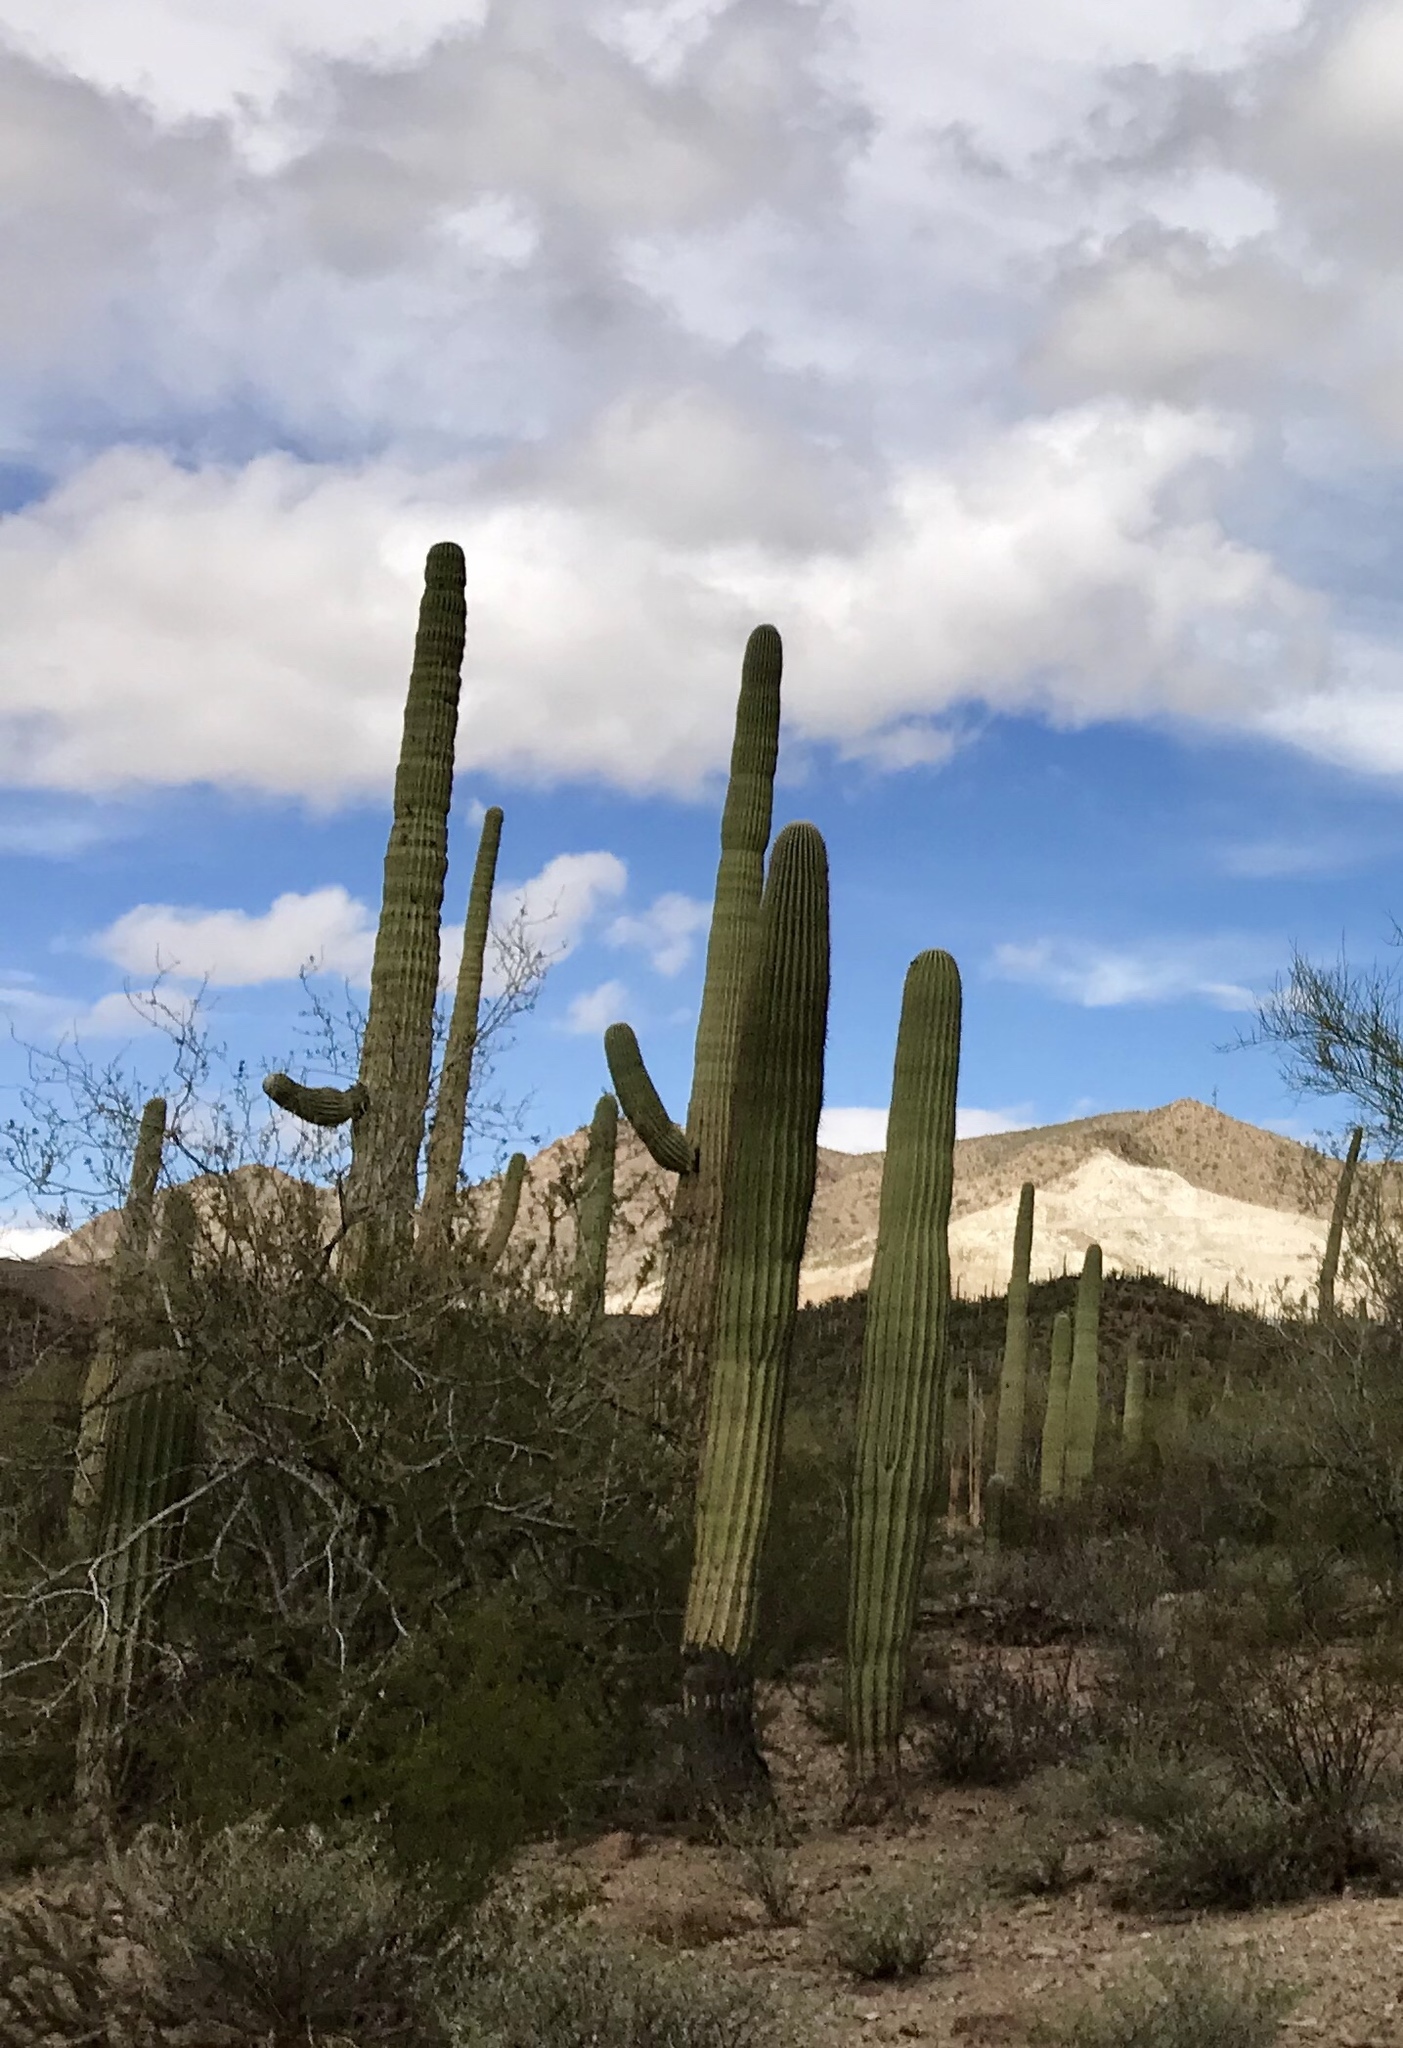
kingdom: Plantae
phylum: Tracheophyta
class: Magnoliopsida
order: Caryophyllales
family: Cactaceae
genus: Carnegiea
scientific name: Carnegiea gigantea
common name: Saguaro
